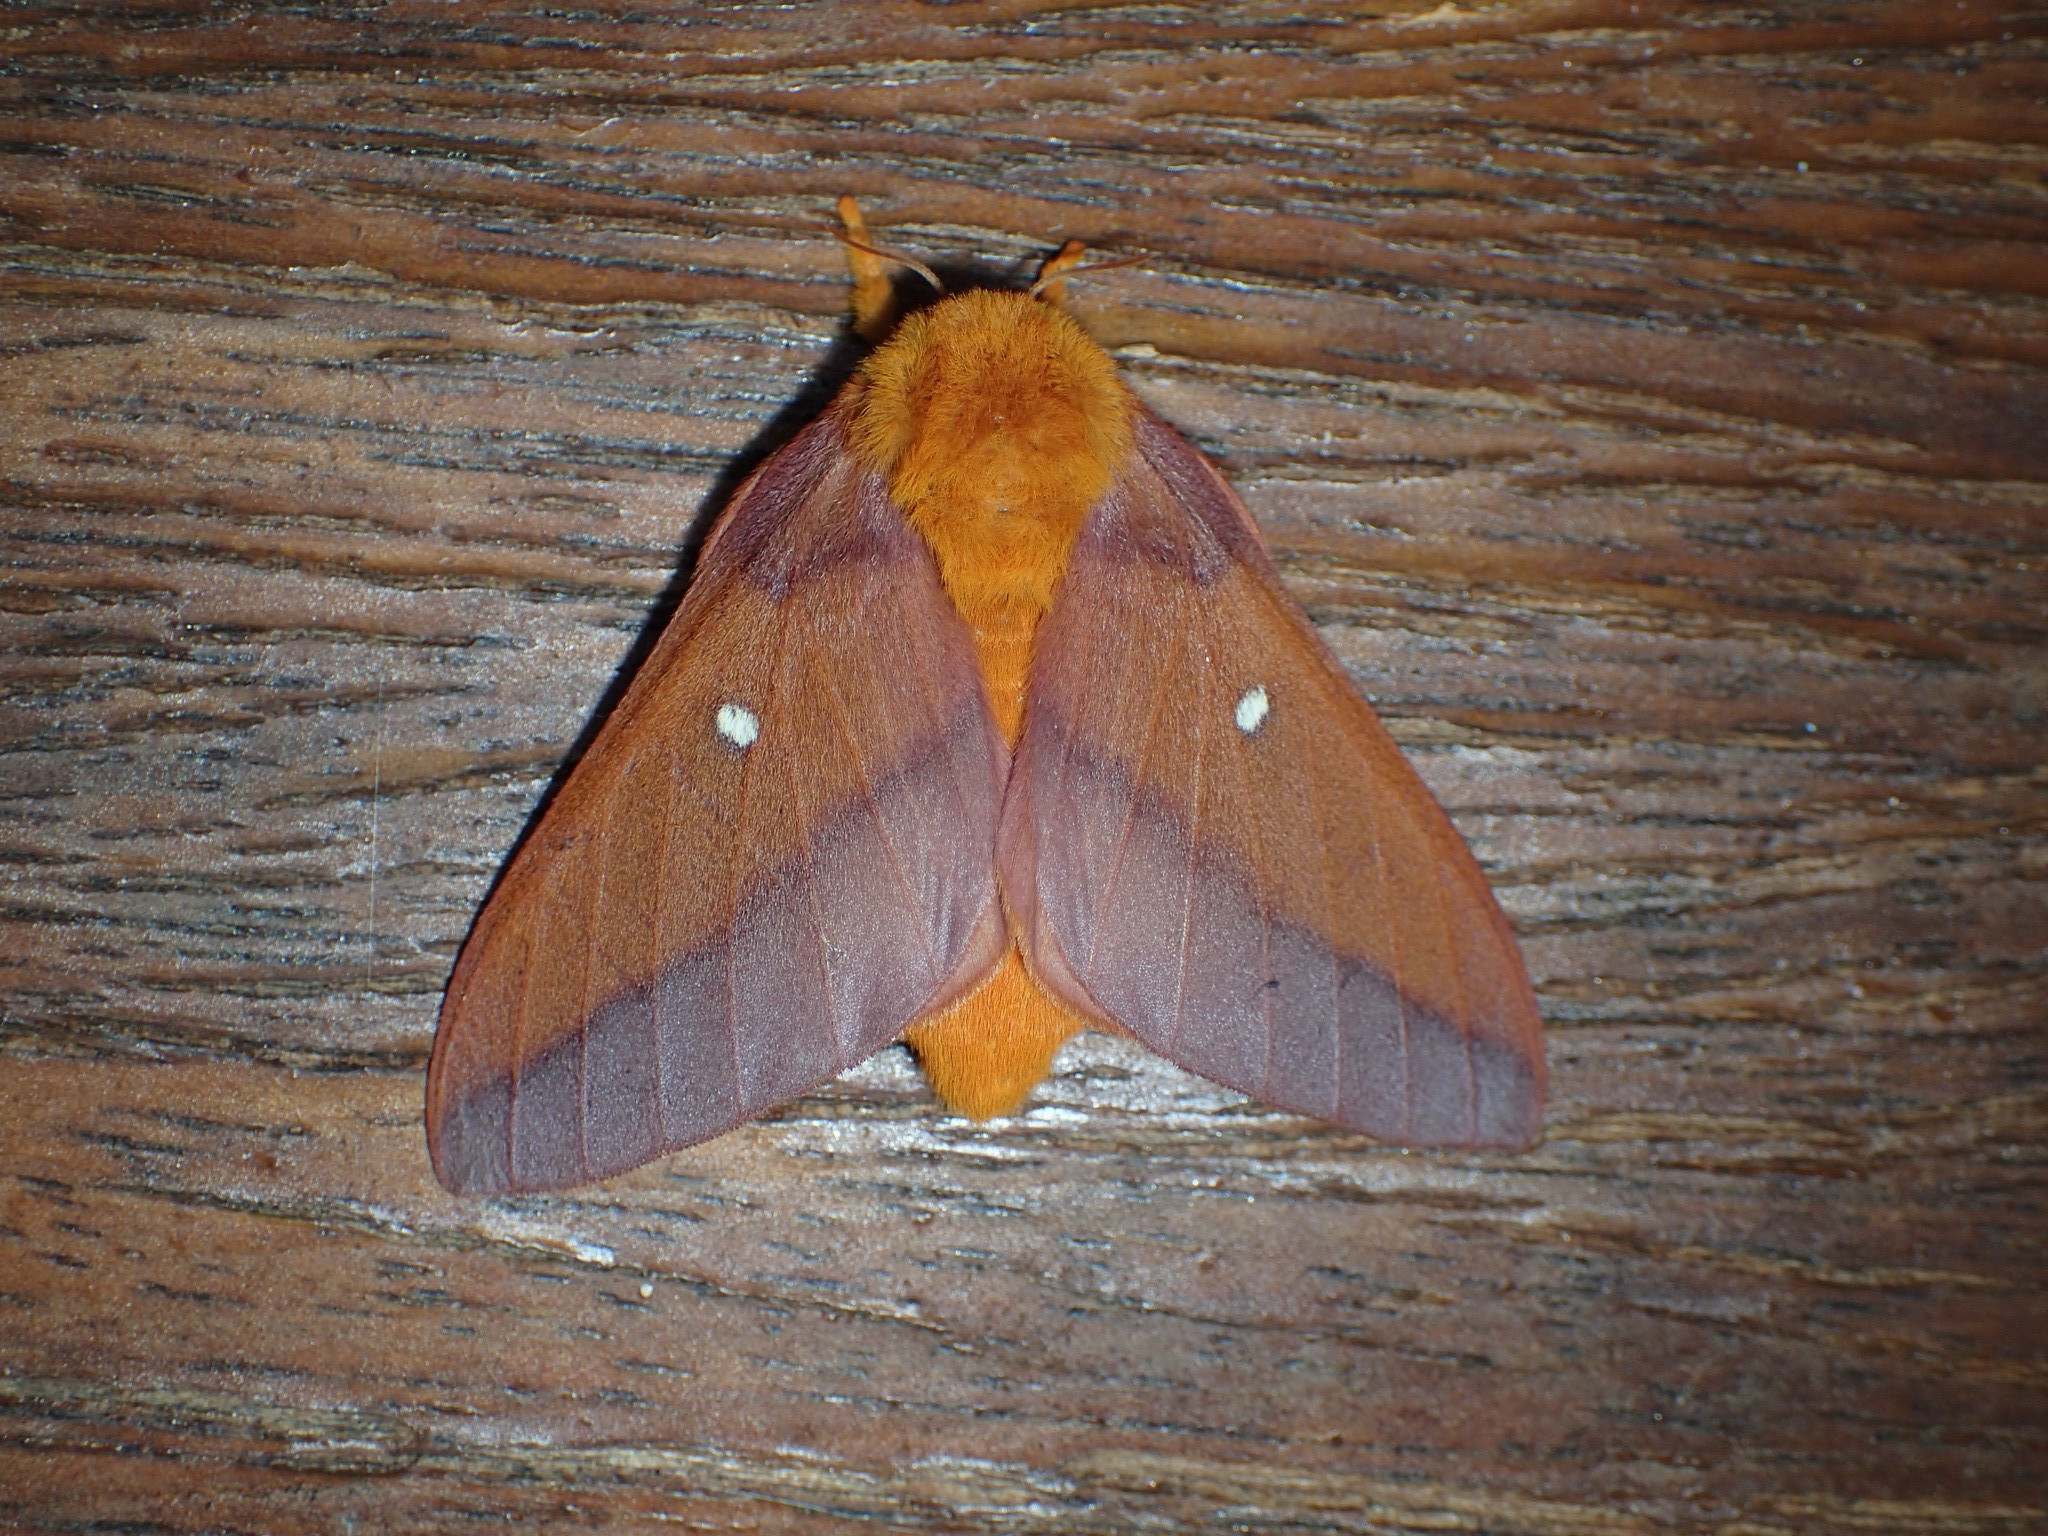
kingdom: Animalia
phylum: Arthropoda
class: Insecta
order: Lepidoptera
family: Saturniidae
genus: Anisota
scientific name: Anisota virginiensis
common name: Pink striped oakworm moth
